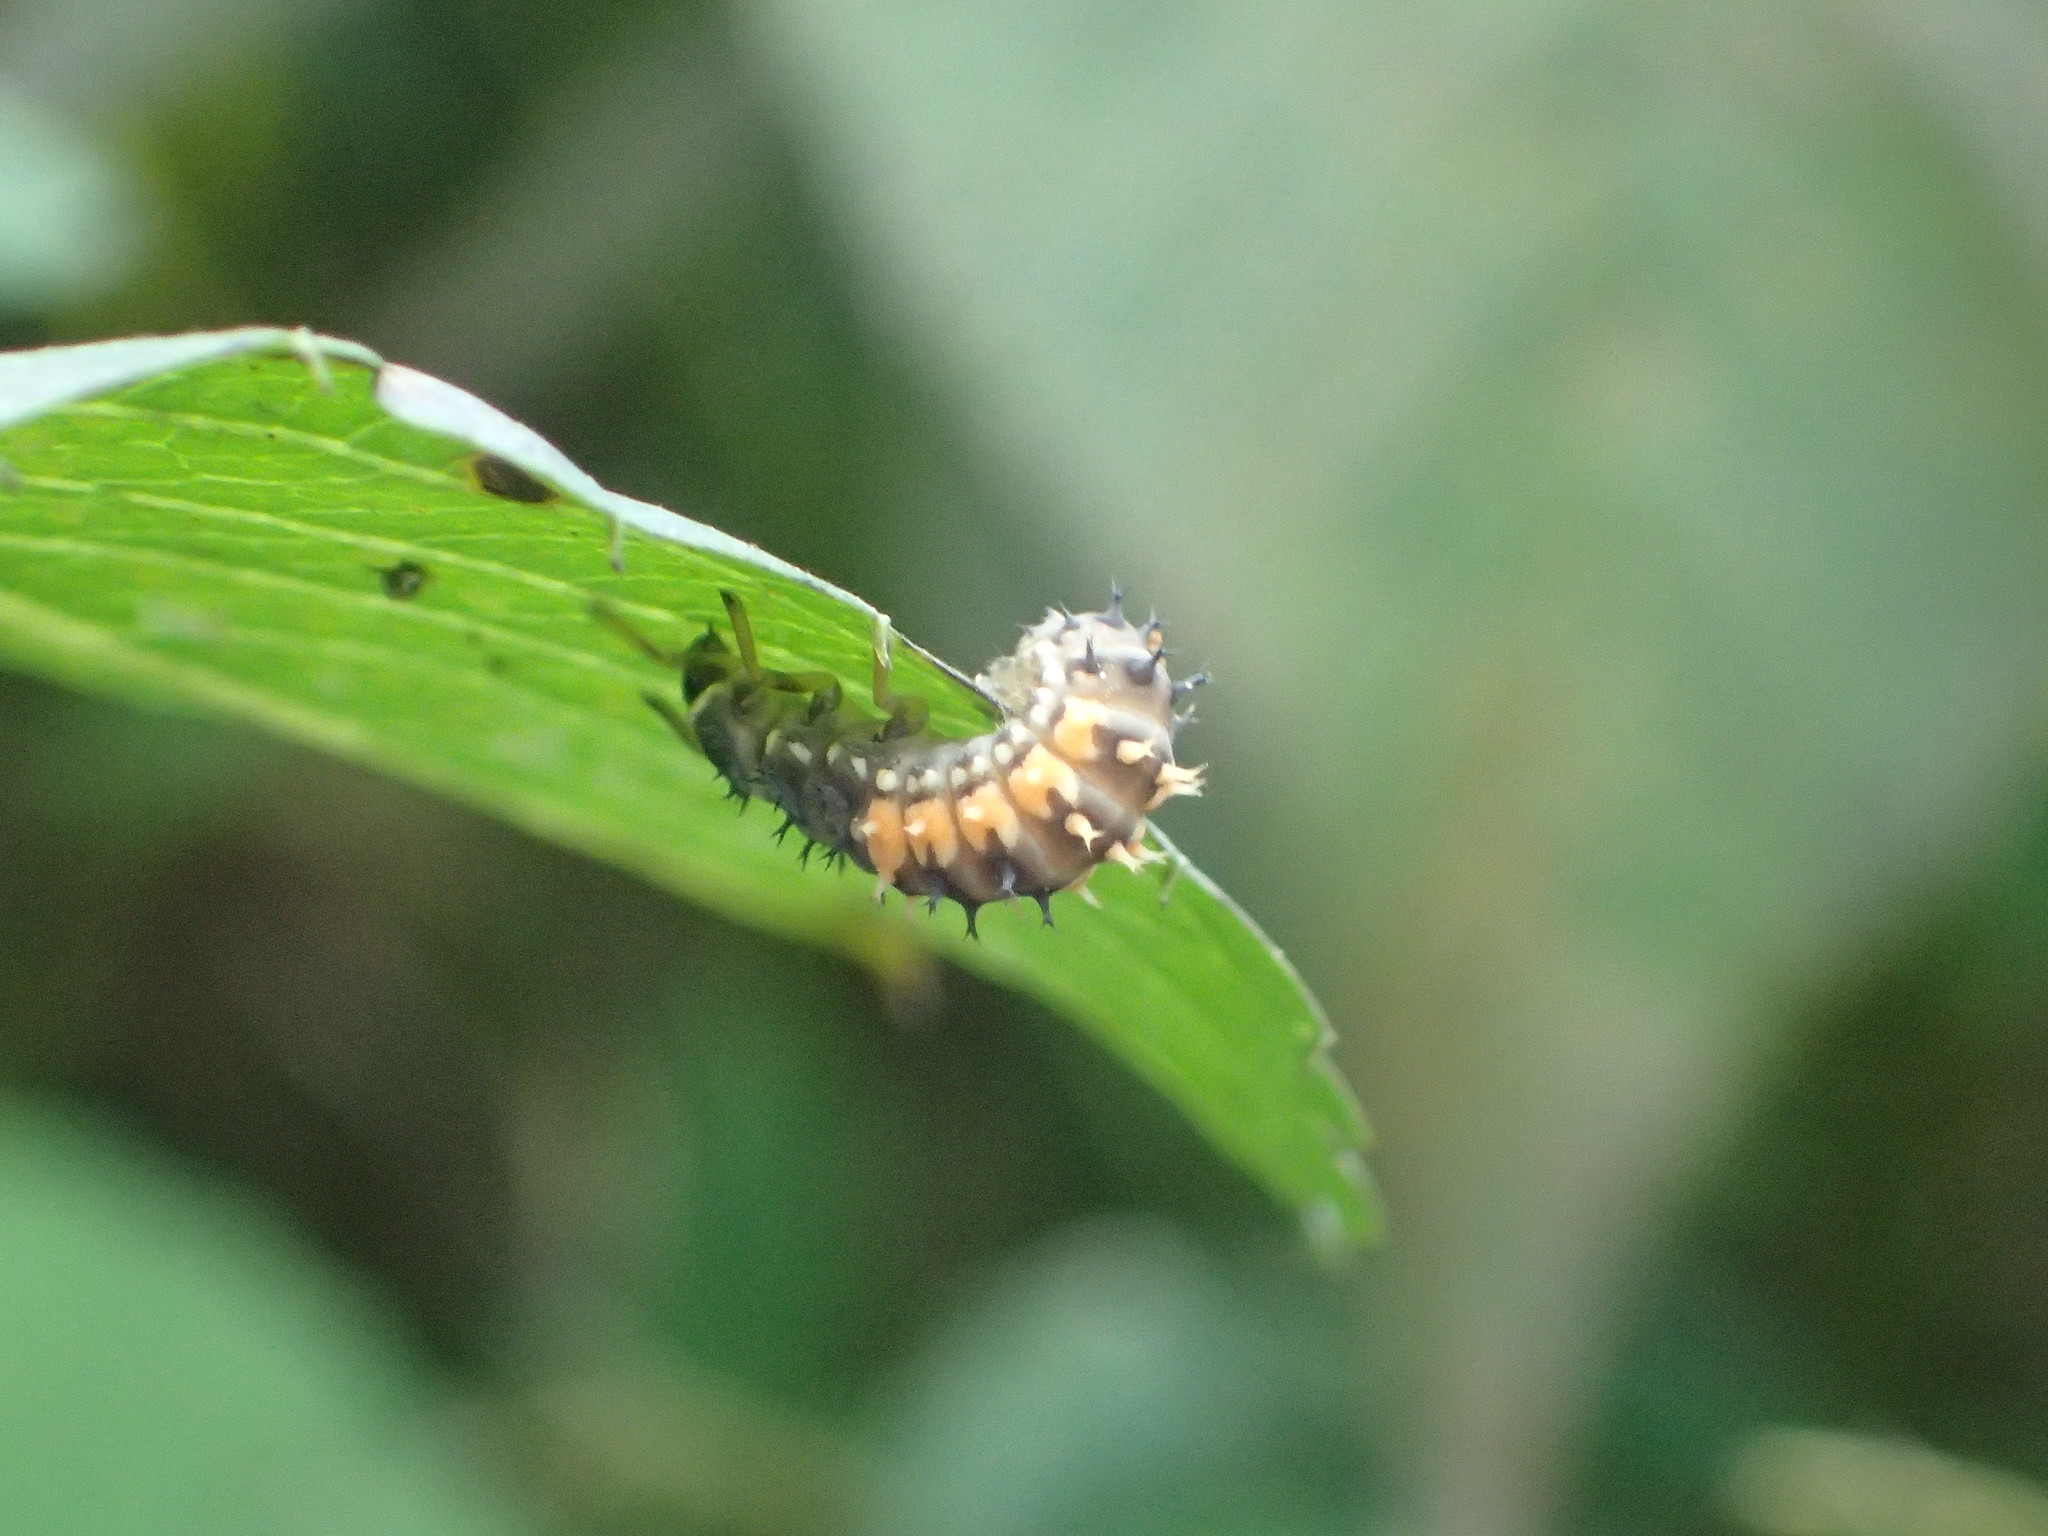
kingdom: Animalia
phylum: Arthropoda
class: Insecta
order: Coleoptera
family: Coccinellidae
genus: Harmonia
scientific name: Harmonia axyridis
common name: Harlequin ladybird
